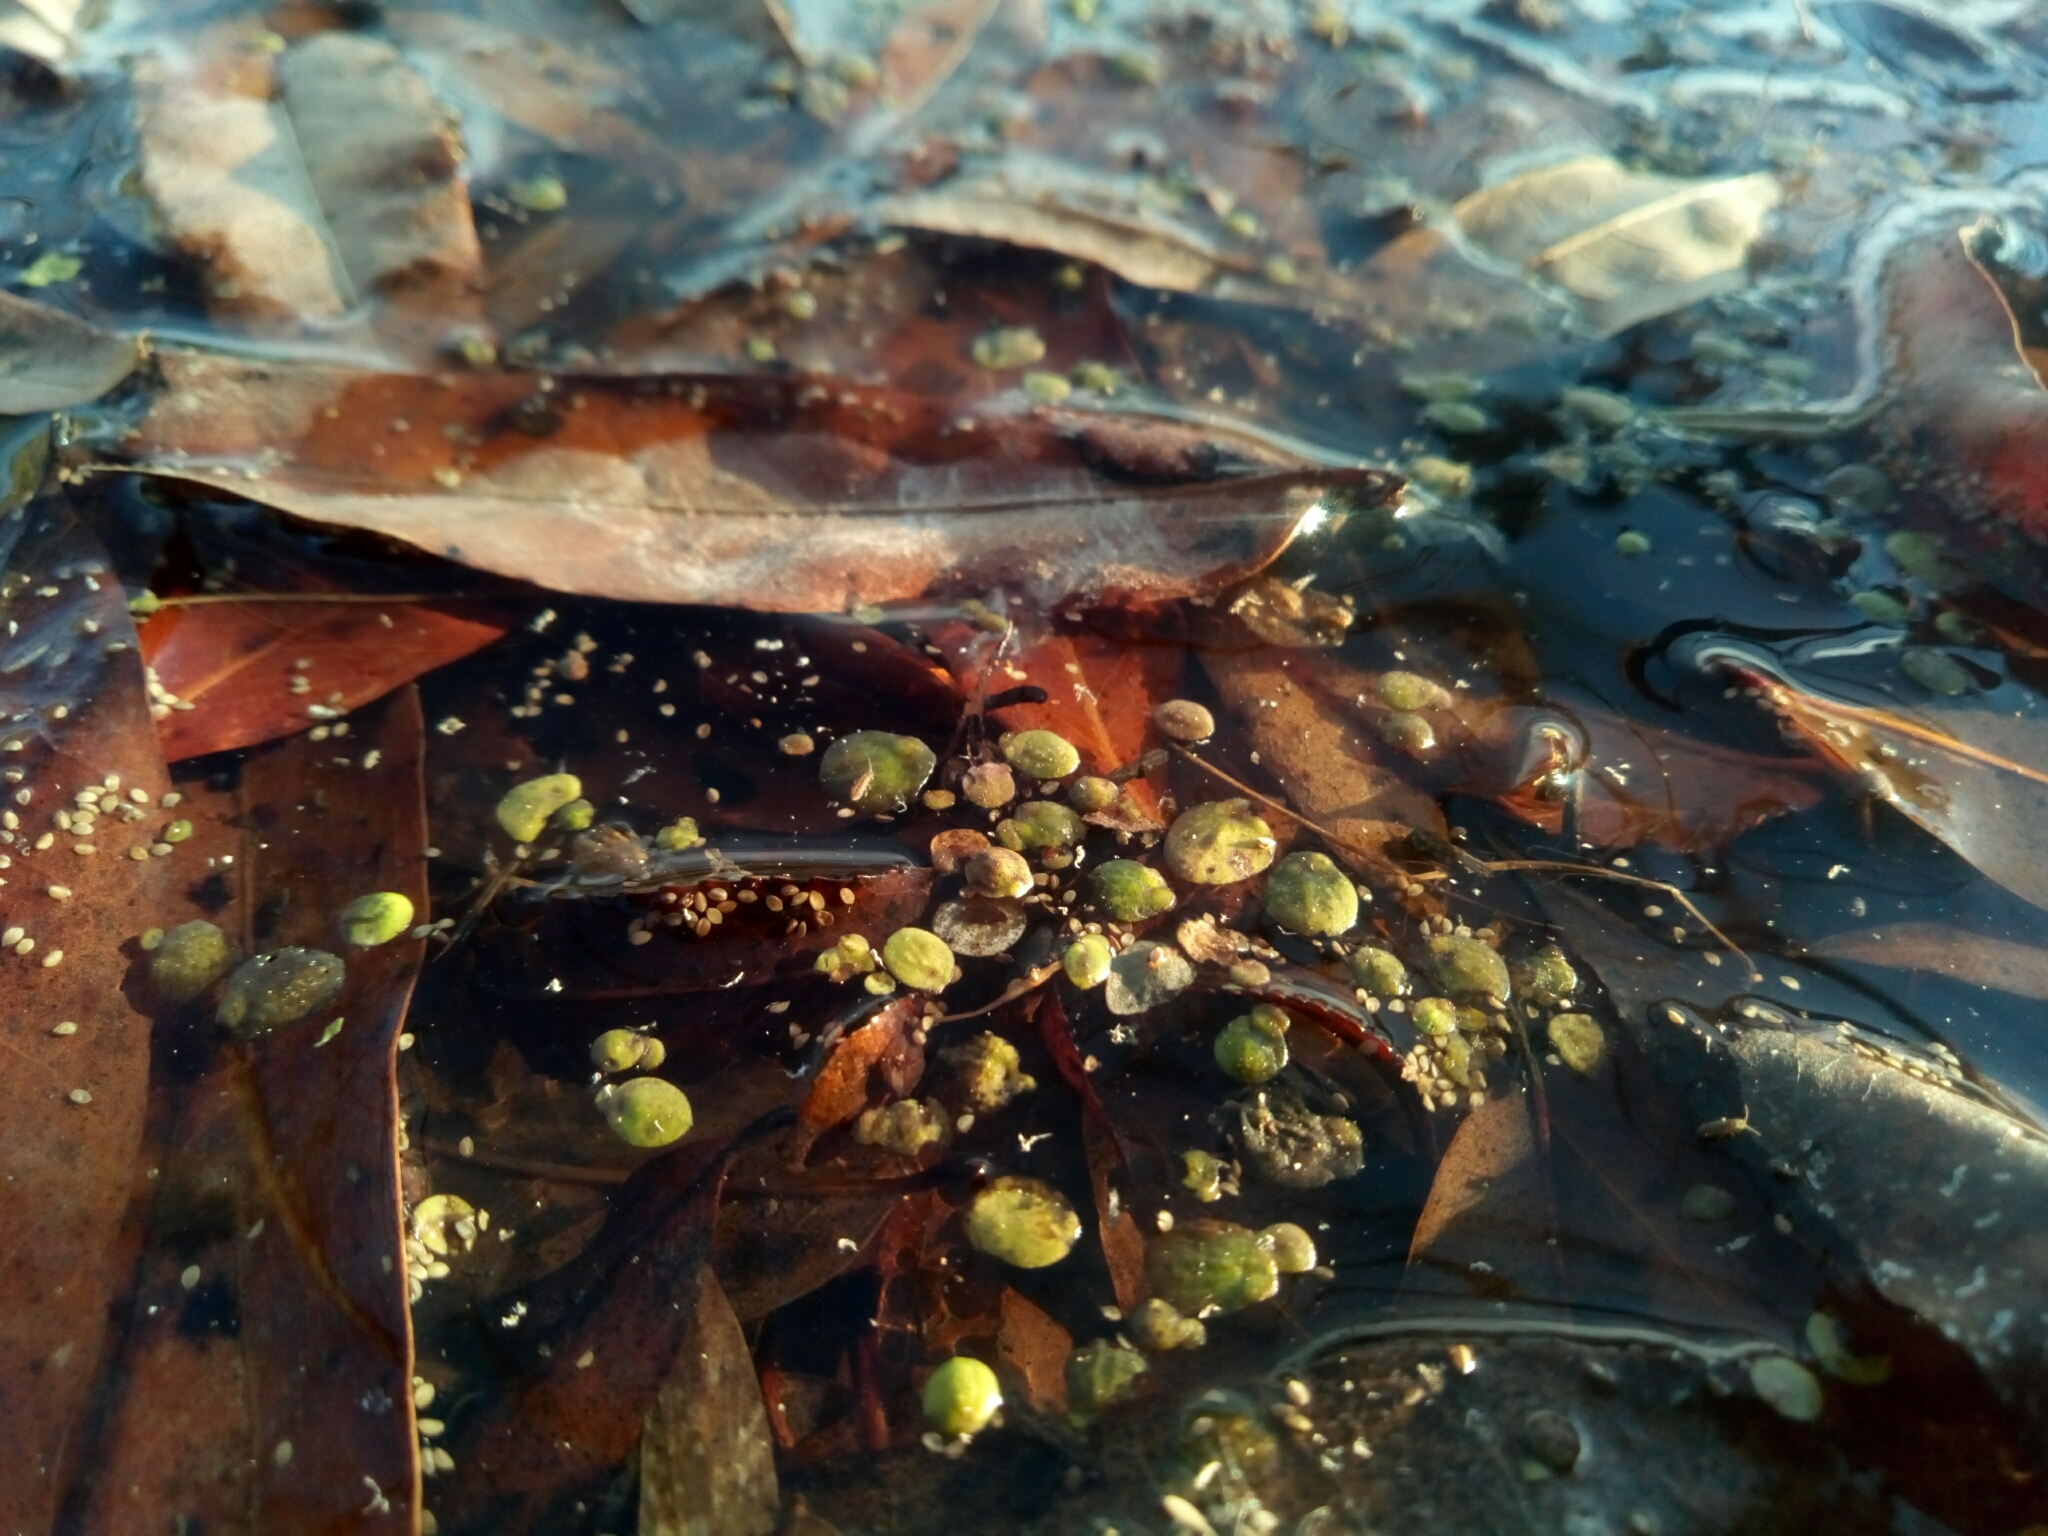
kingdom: Plantae
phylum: Tracheophyta
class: Liliopsida
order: Alismatales
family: Araceae
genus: Spirodela
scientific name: Spirodela polyrhiza
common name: Great duckweed
